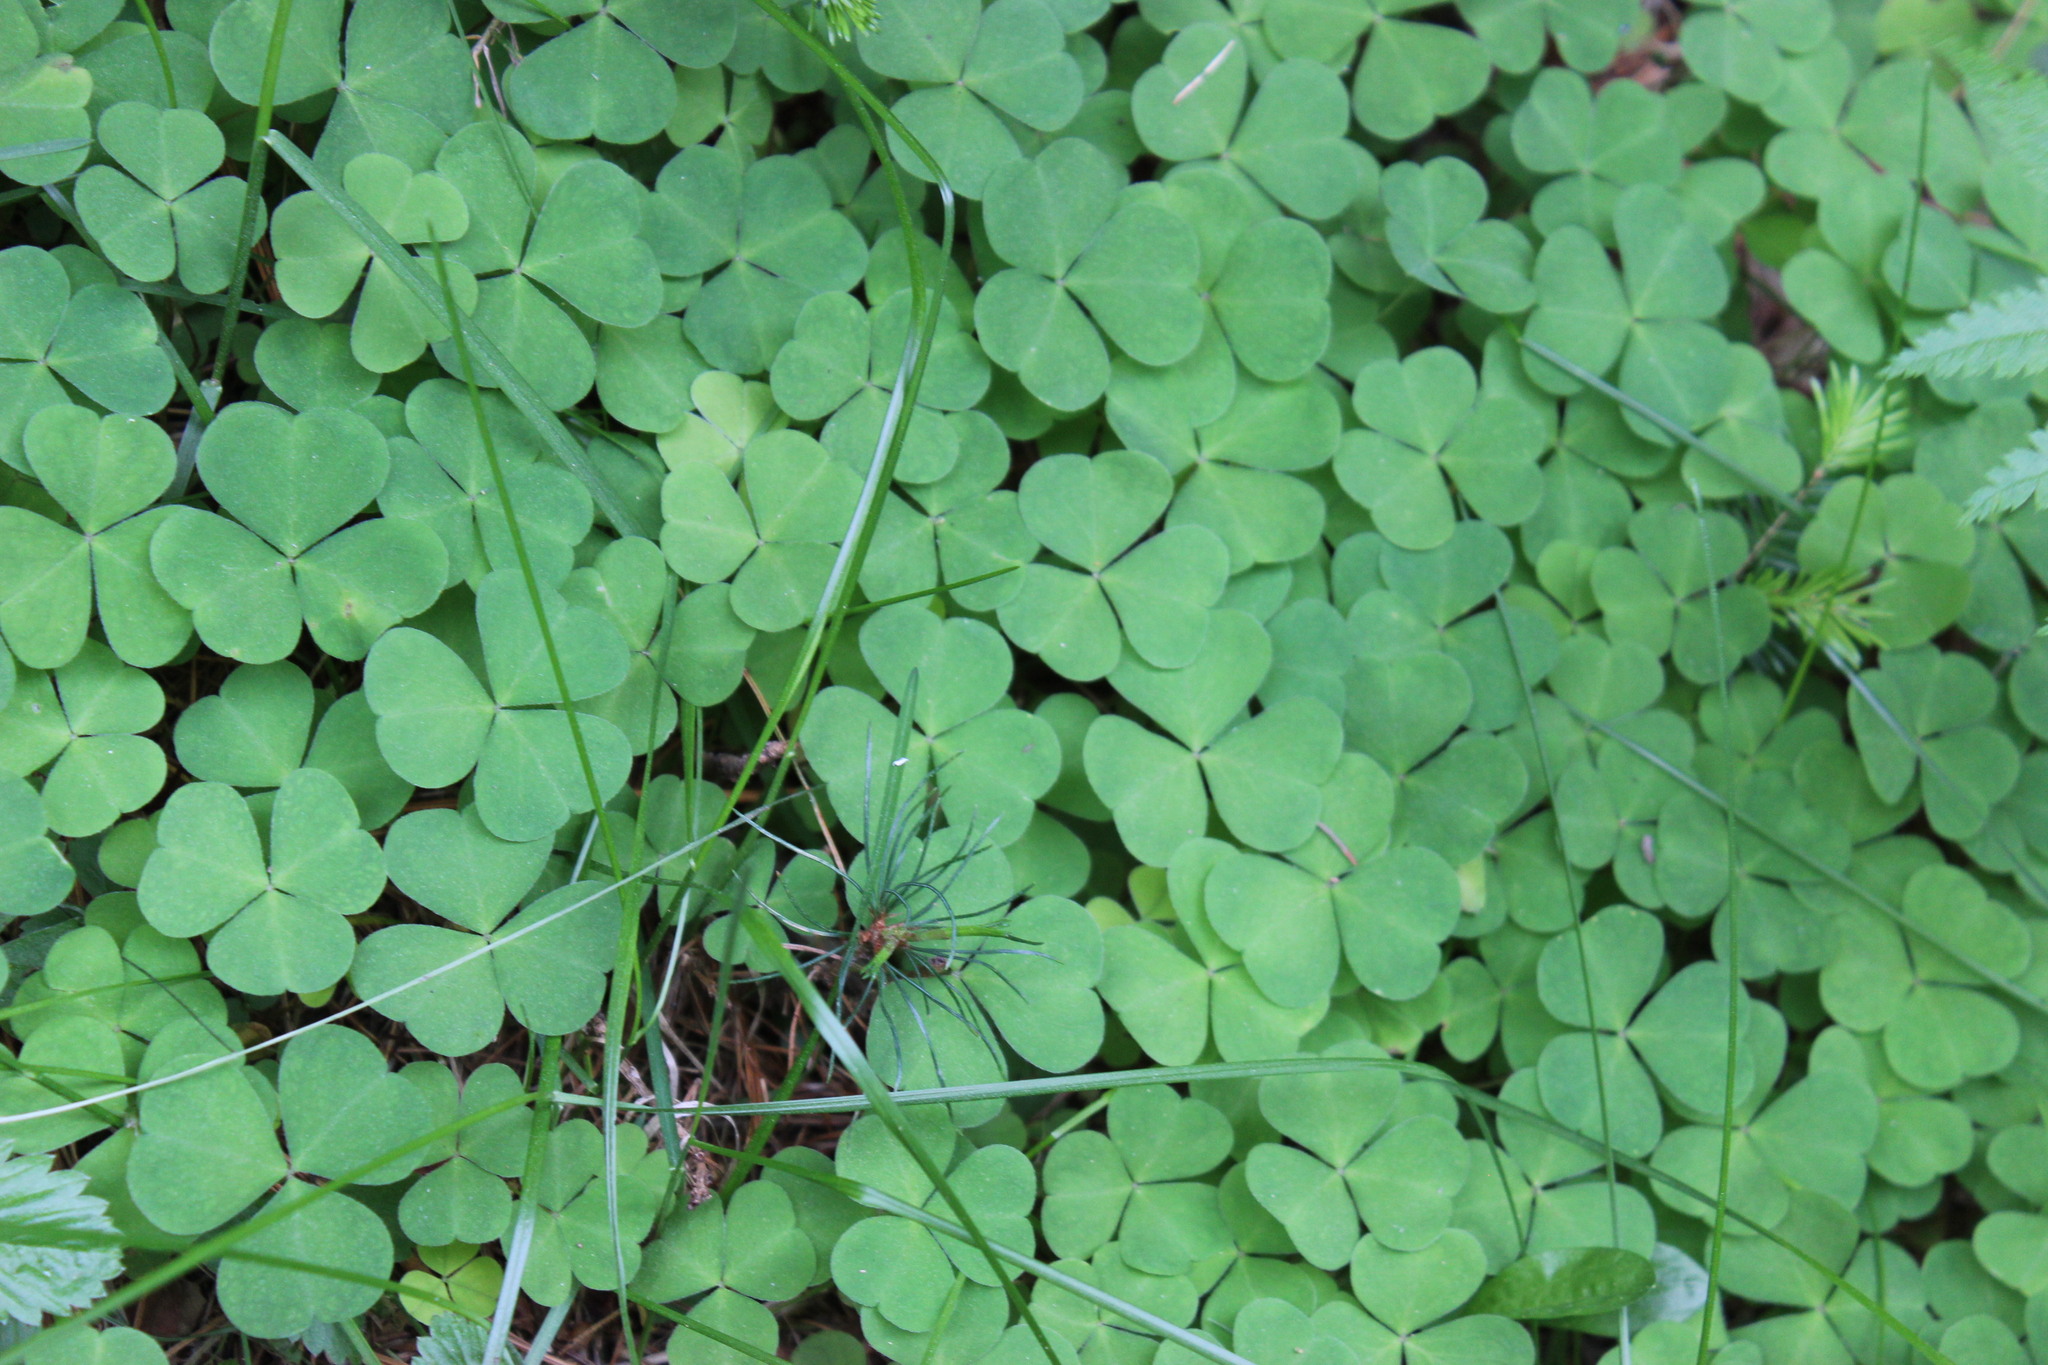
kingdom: Plantae
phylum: Tracheophyta
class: Magnoliopsida
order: Oxalidales
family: Oxalidaceae
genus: Oxalis
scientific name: Oxalis acetosella
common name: Wood-sorrel
